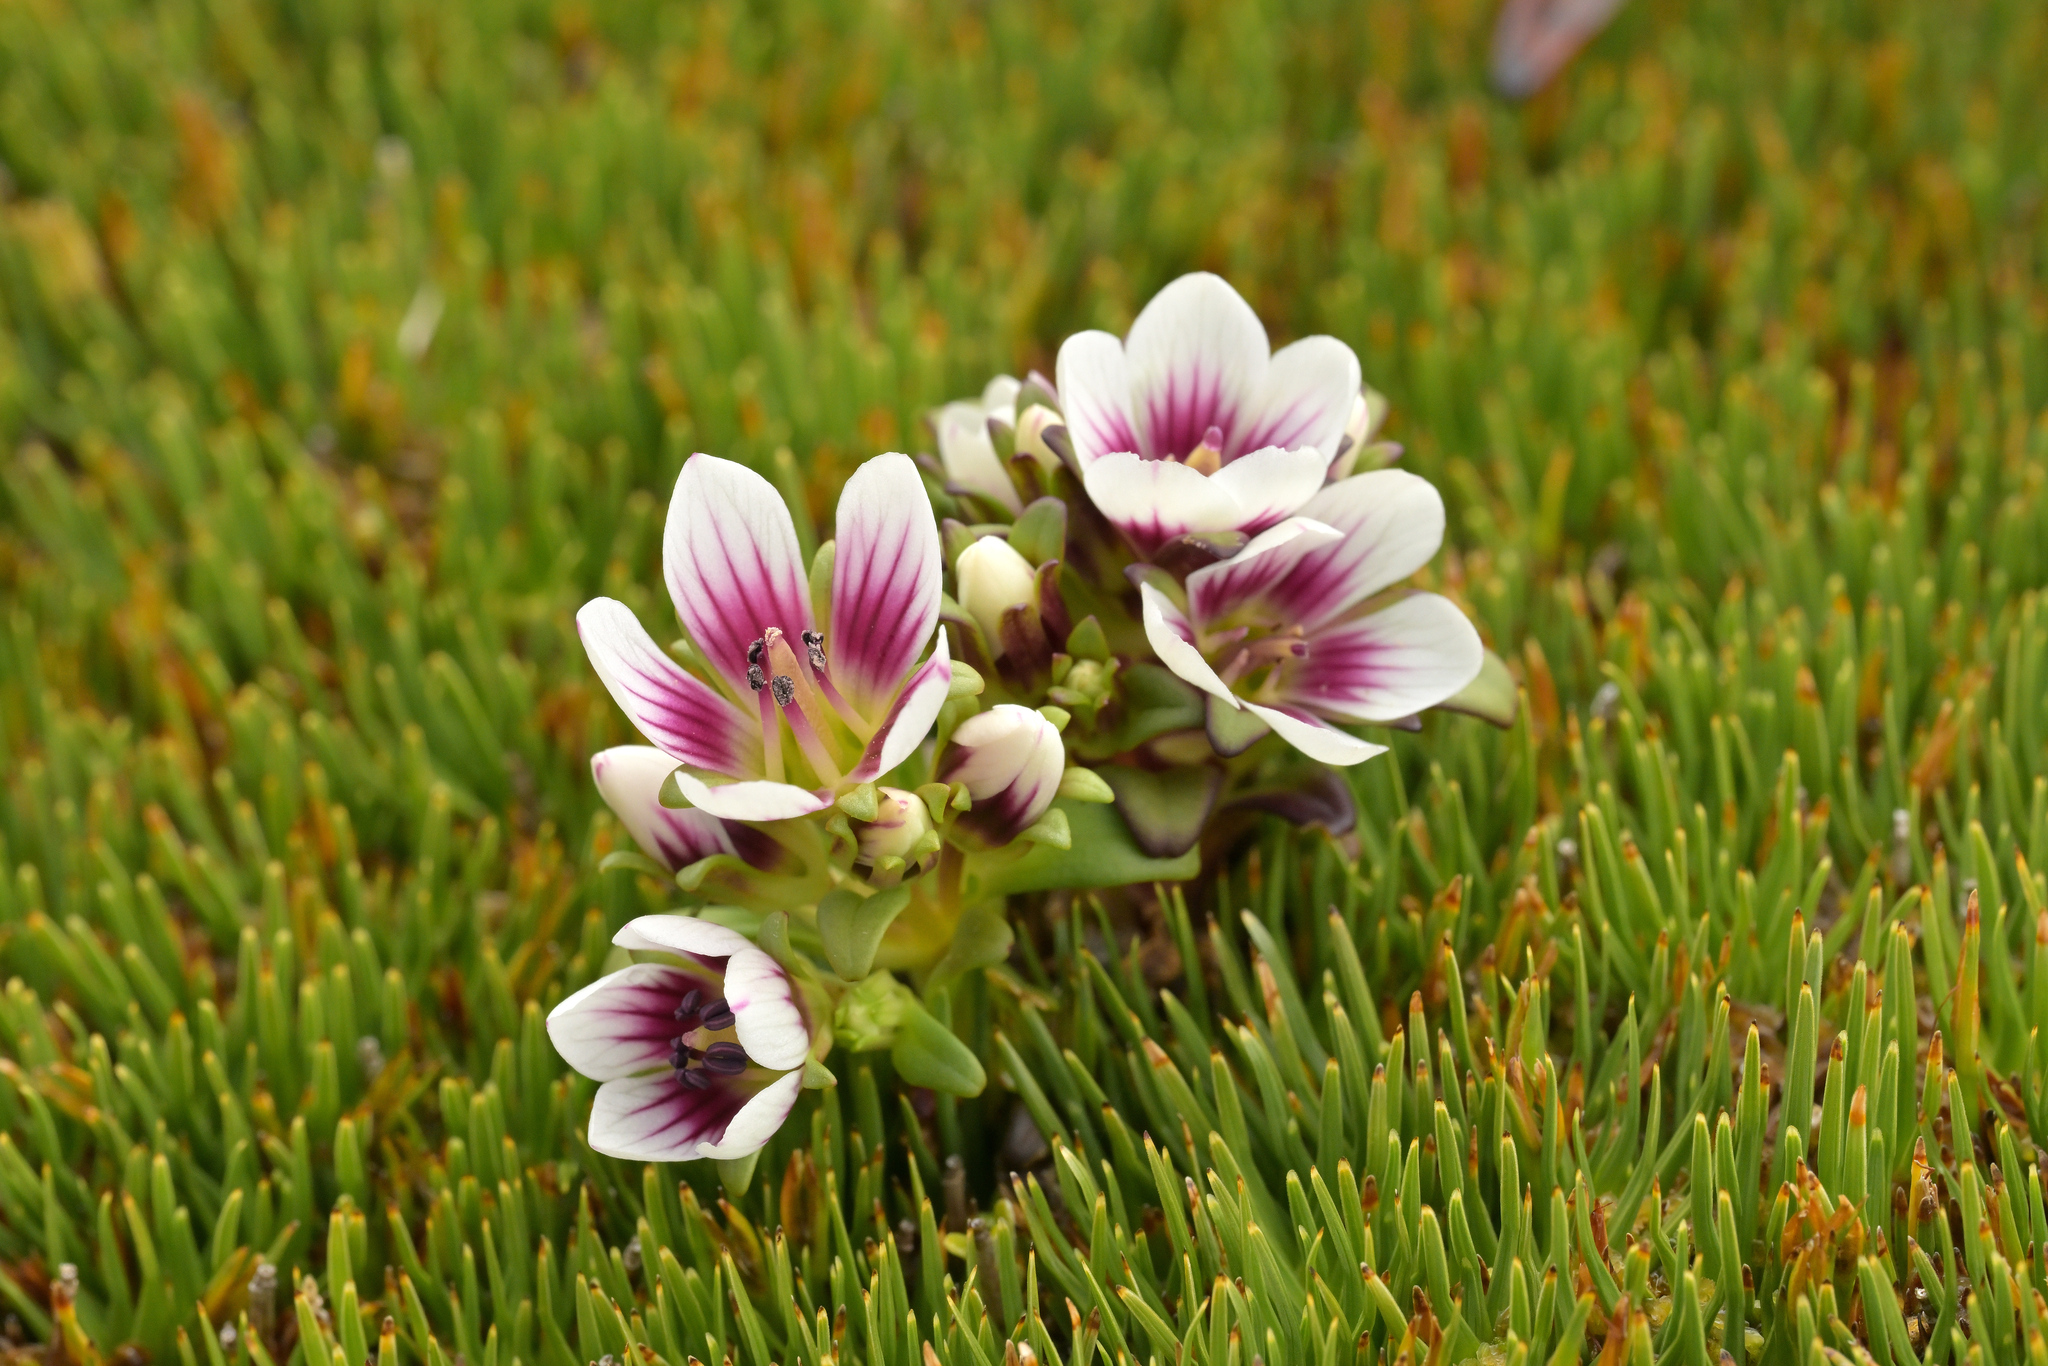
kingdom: Plantae
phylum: Tracheophyta
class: Magnoliopsida
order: Gentianales
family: Gentianaceae
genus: Gentianella
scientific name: Gentianella concinna
